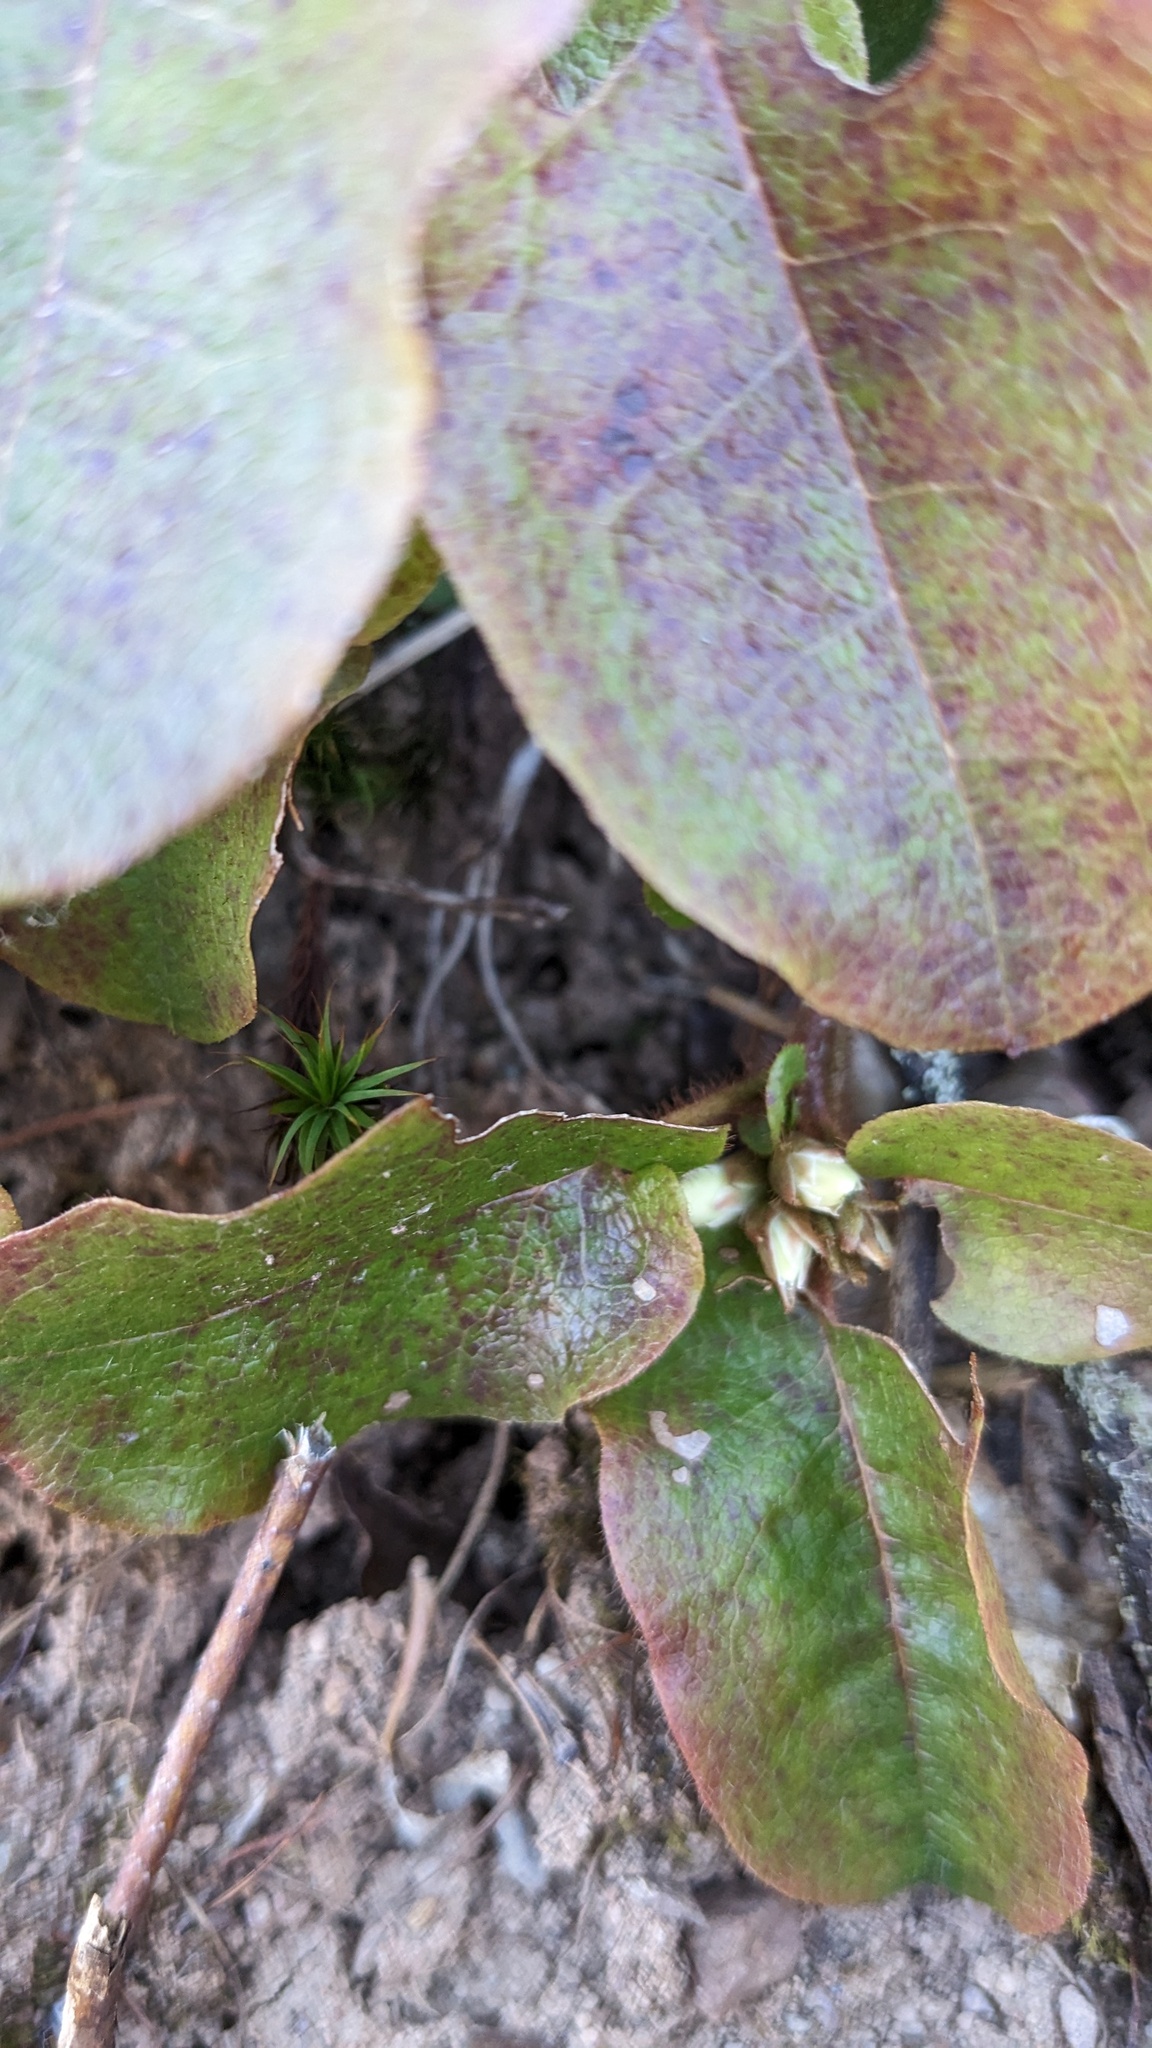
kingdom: Plantae
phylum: Tracheophyta
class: Magnoliopsida
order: Ericales
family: Ericaceae
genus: Epigaea
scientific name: Epigaea repens
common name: Gravelroot
